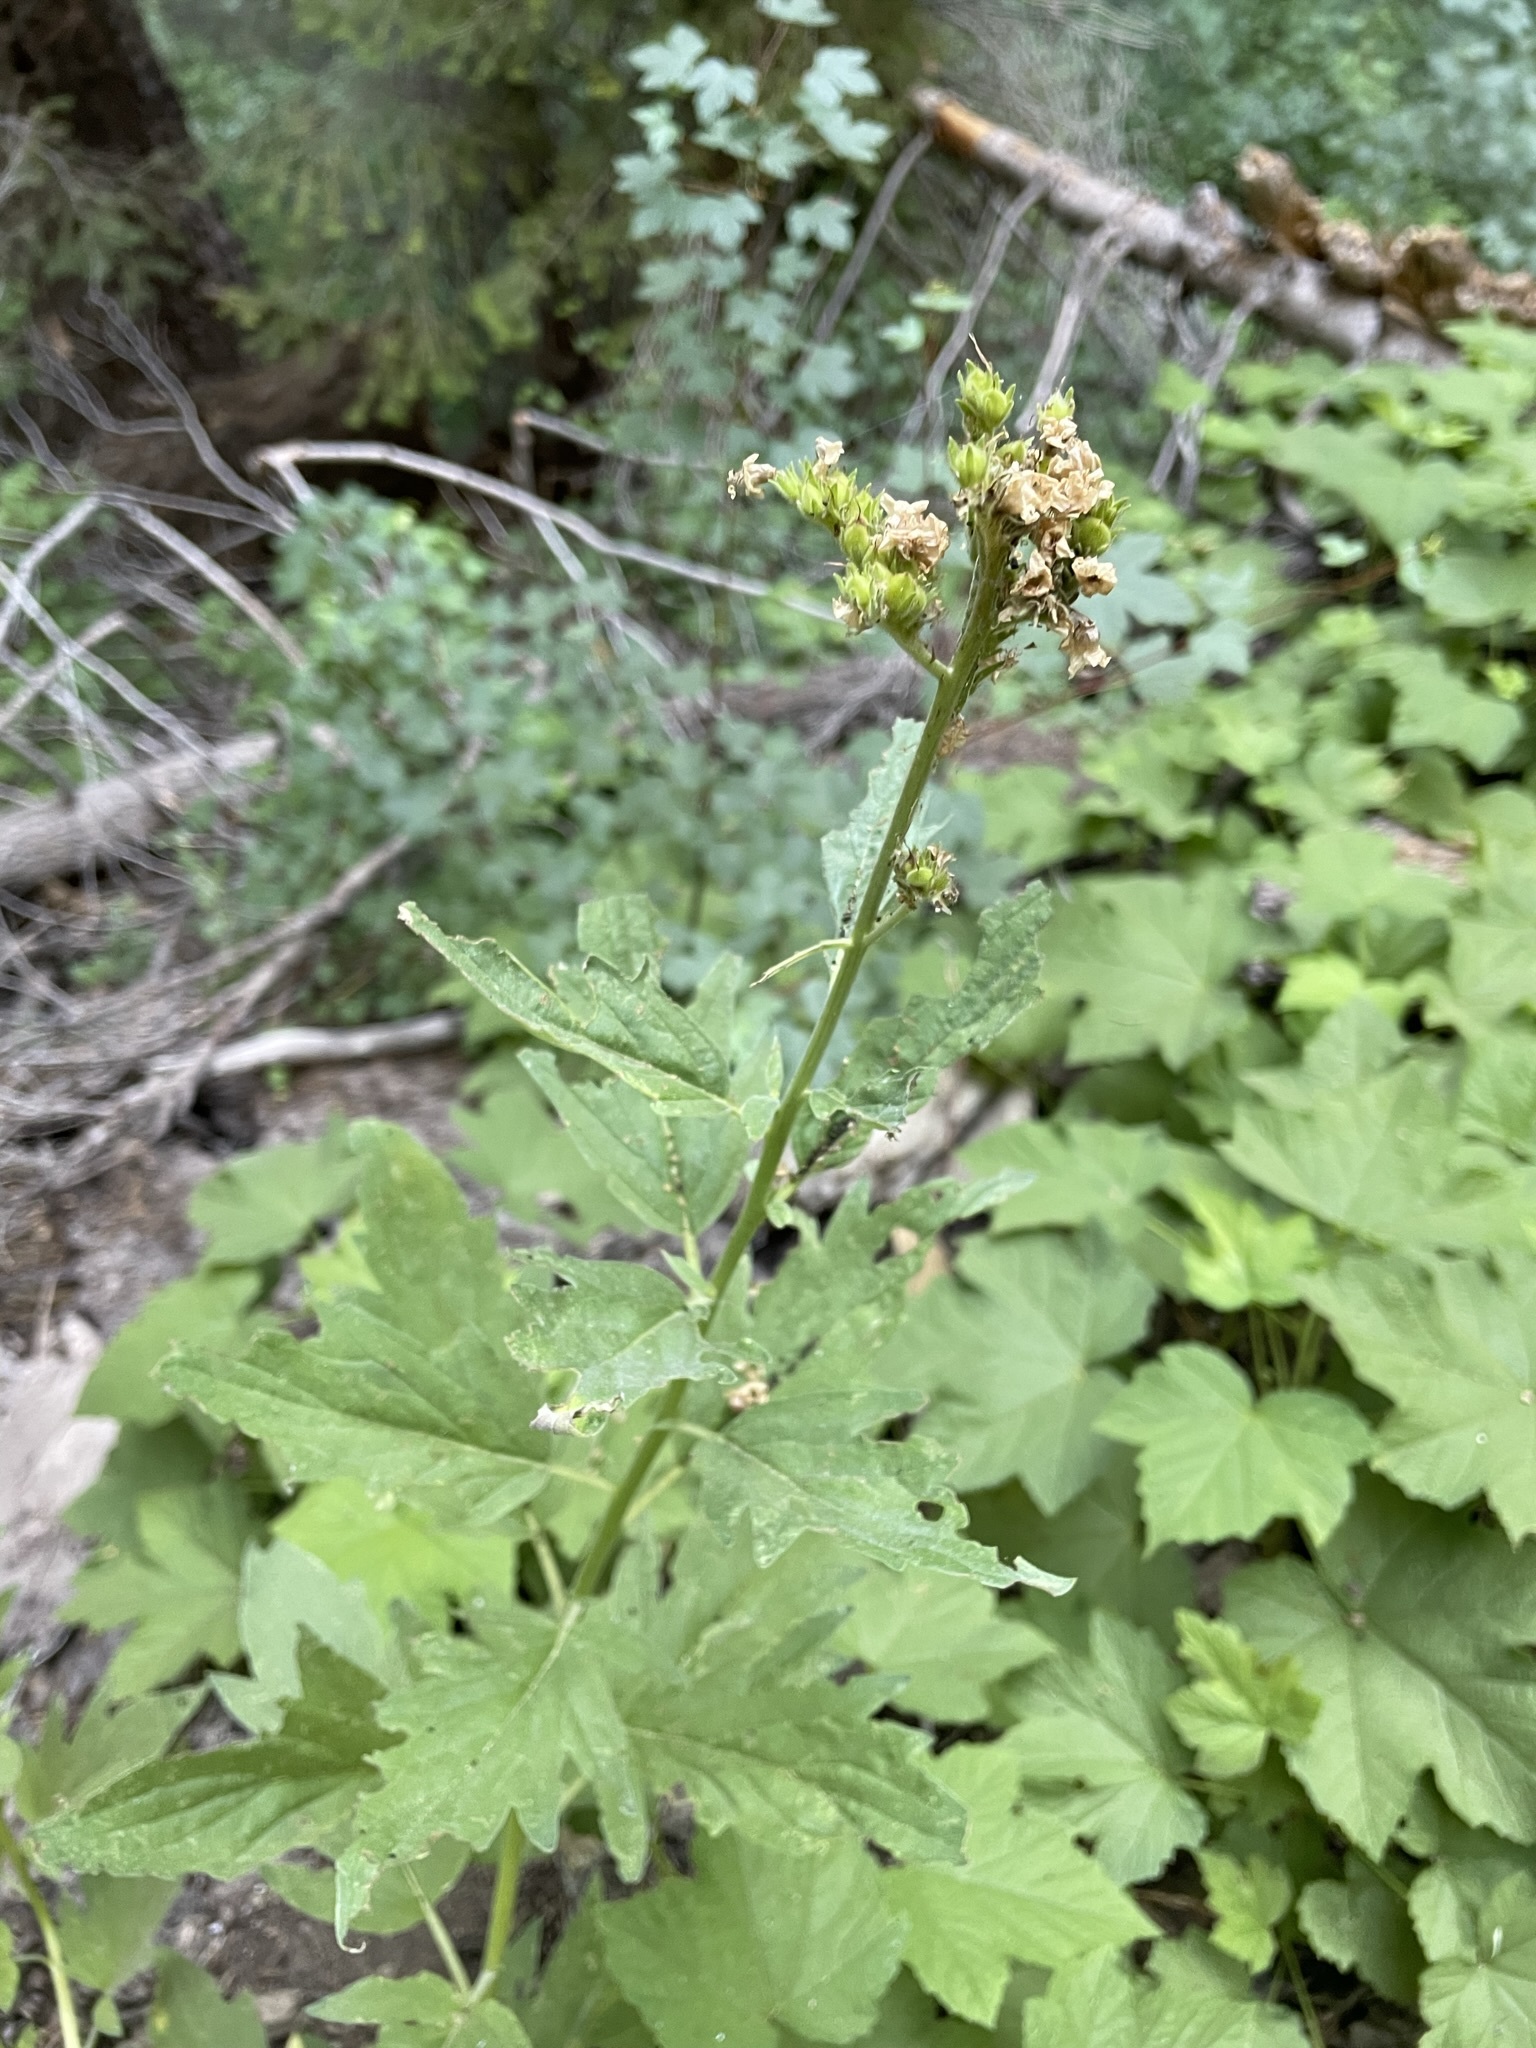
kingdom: Plantae
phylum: Tracheophyta
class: Magnoliopsida
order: Boraginales
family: Hydrophyllaceae
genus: Phacelia
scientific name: Phacelia procera
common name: Tall phacelia
